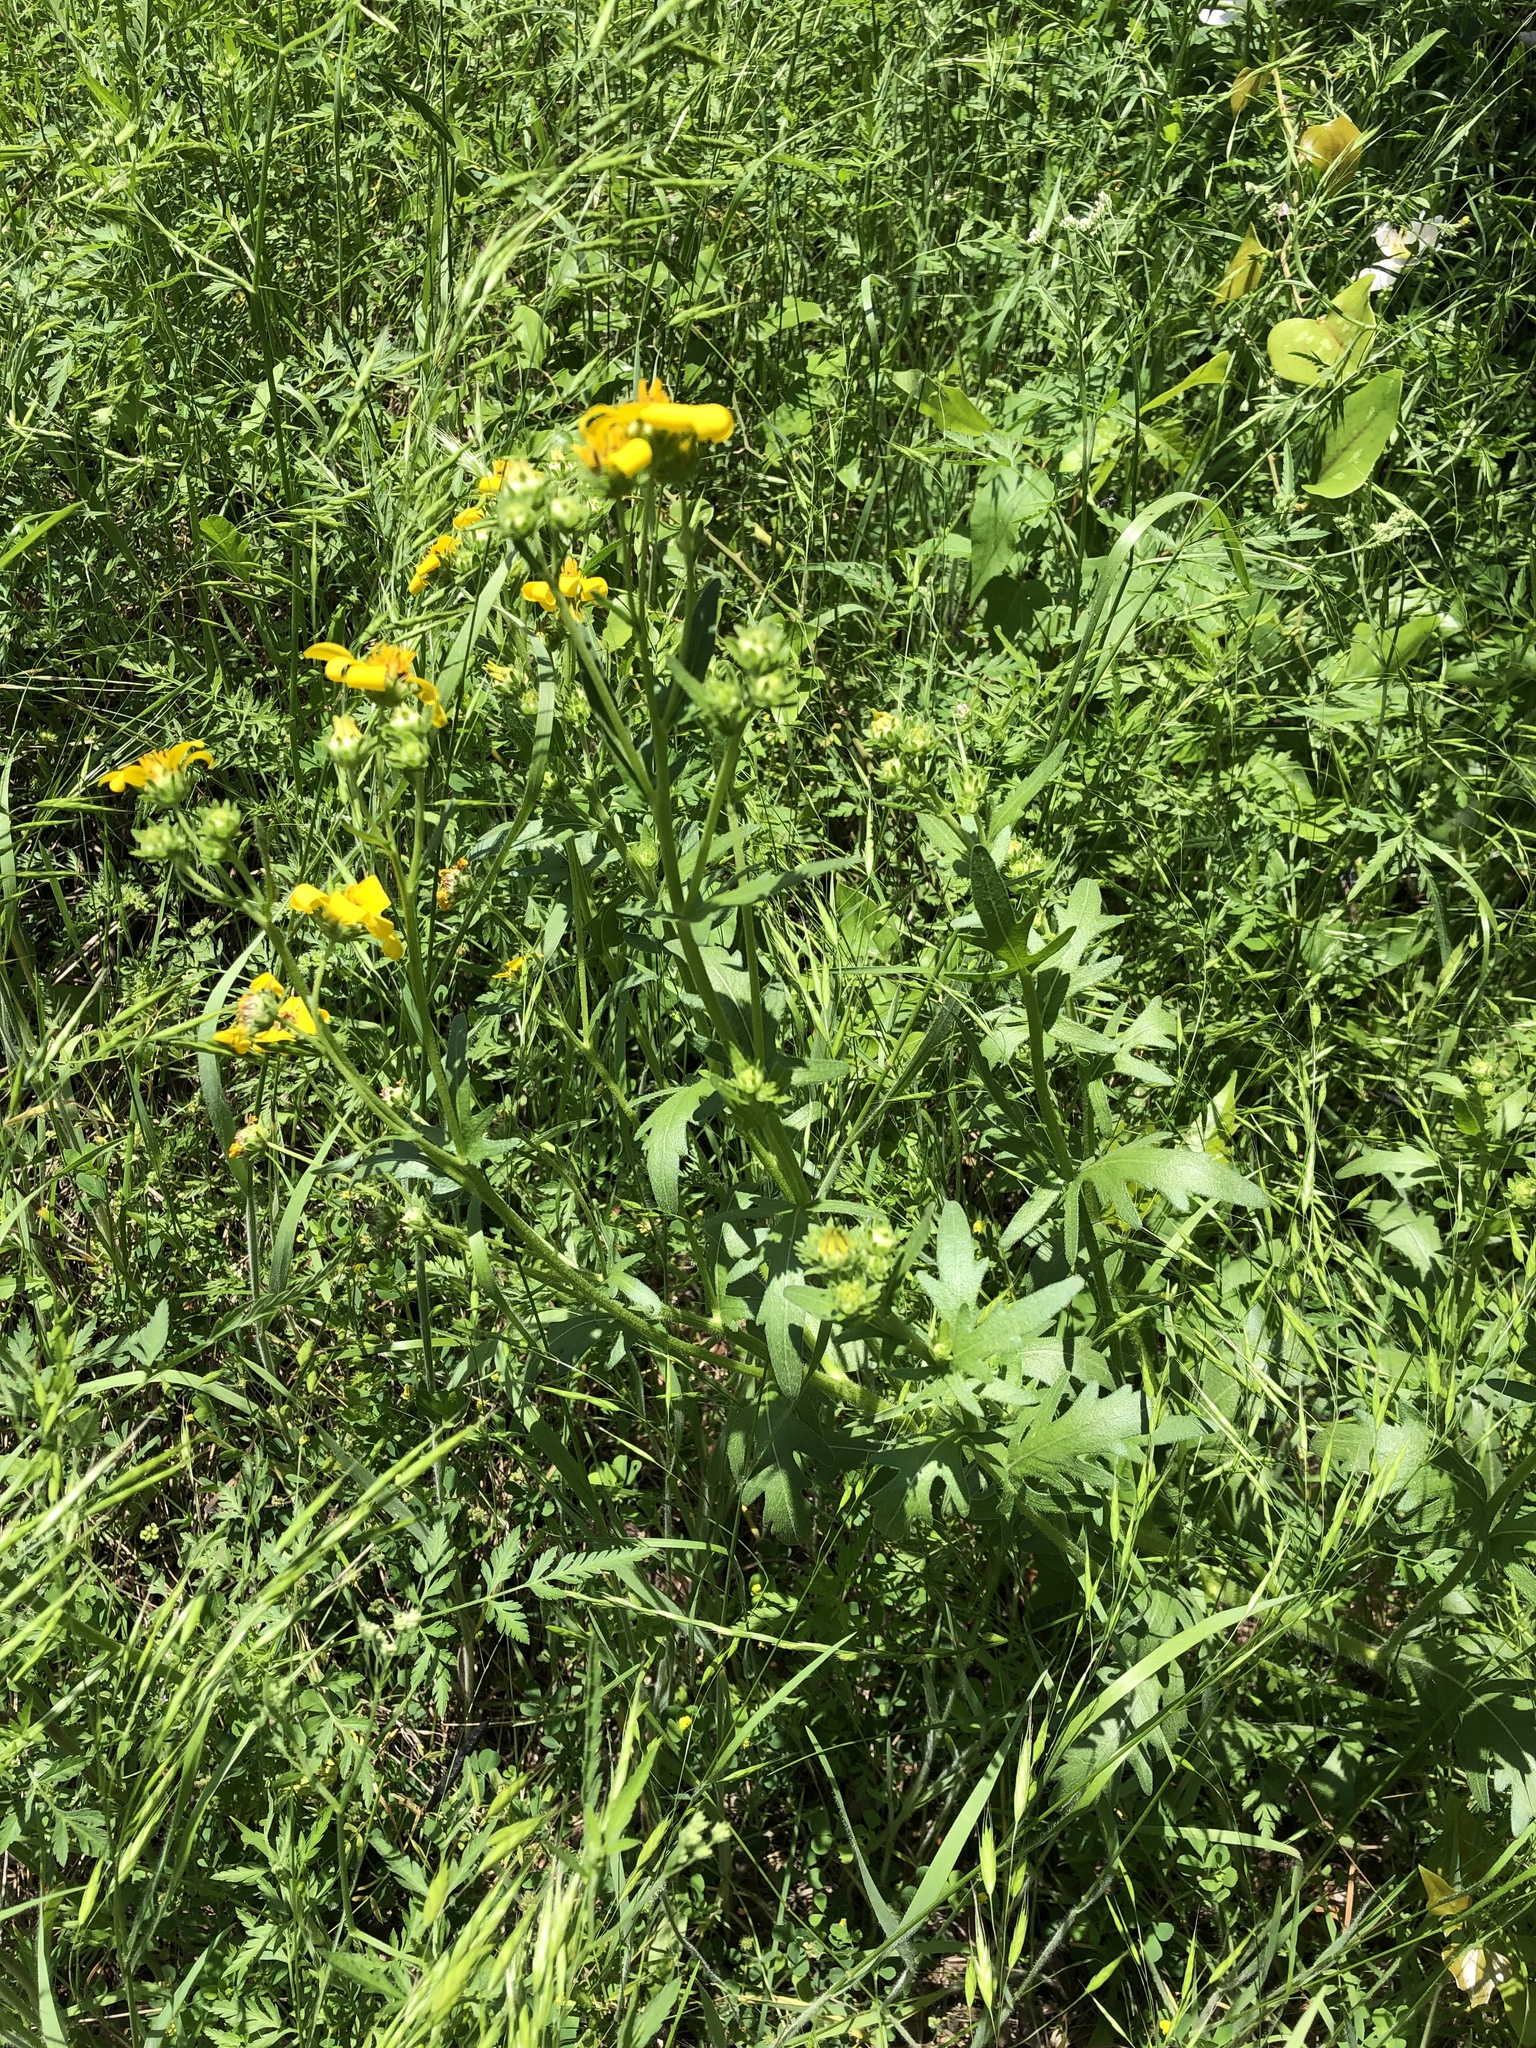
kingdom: Plantae
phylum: Tracheophyta
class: Magnoliopsida
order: Asterales
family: Asteraceae
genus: Engelmannia
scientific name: Engelmannia peristenia
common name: Engelmann's daisy
